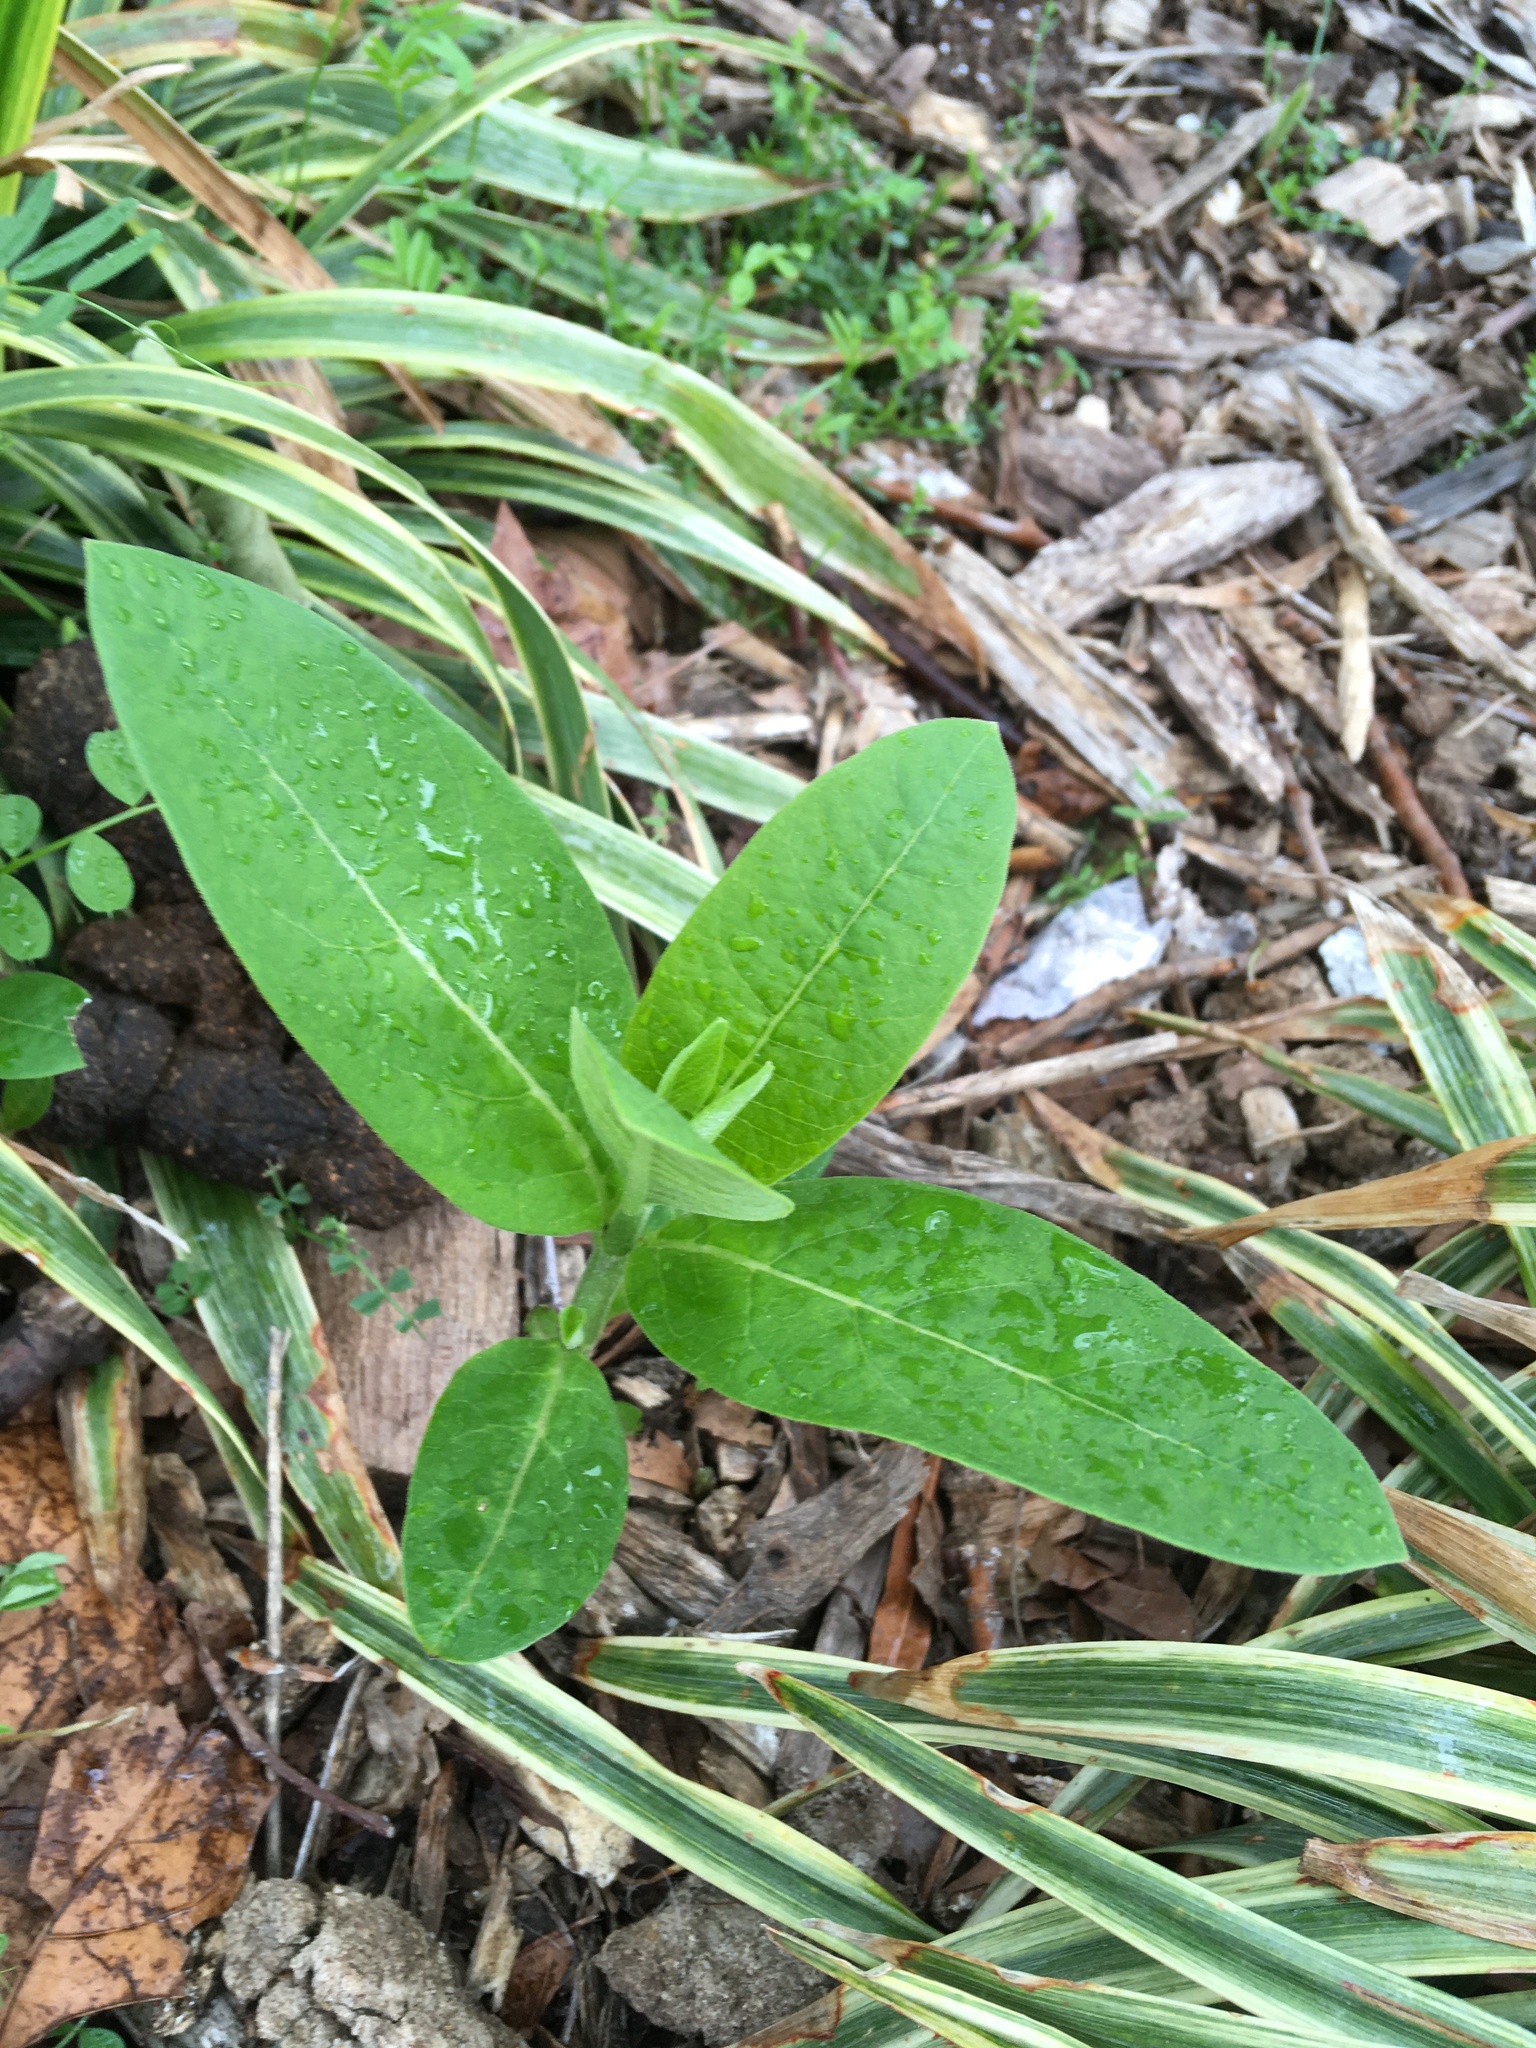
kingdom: Plantae
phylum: Tracheophyta
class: Magnoliopsida
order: Gentianales
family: Apocynaceae
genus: Asclepias
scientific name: Asclepias syriaca
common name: Common milkweed
